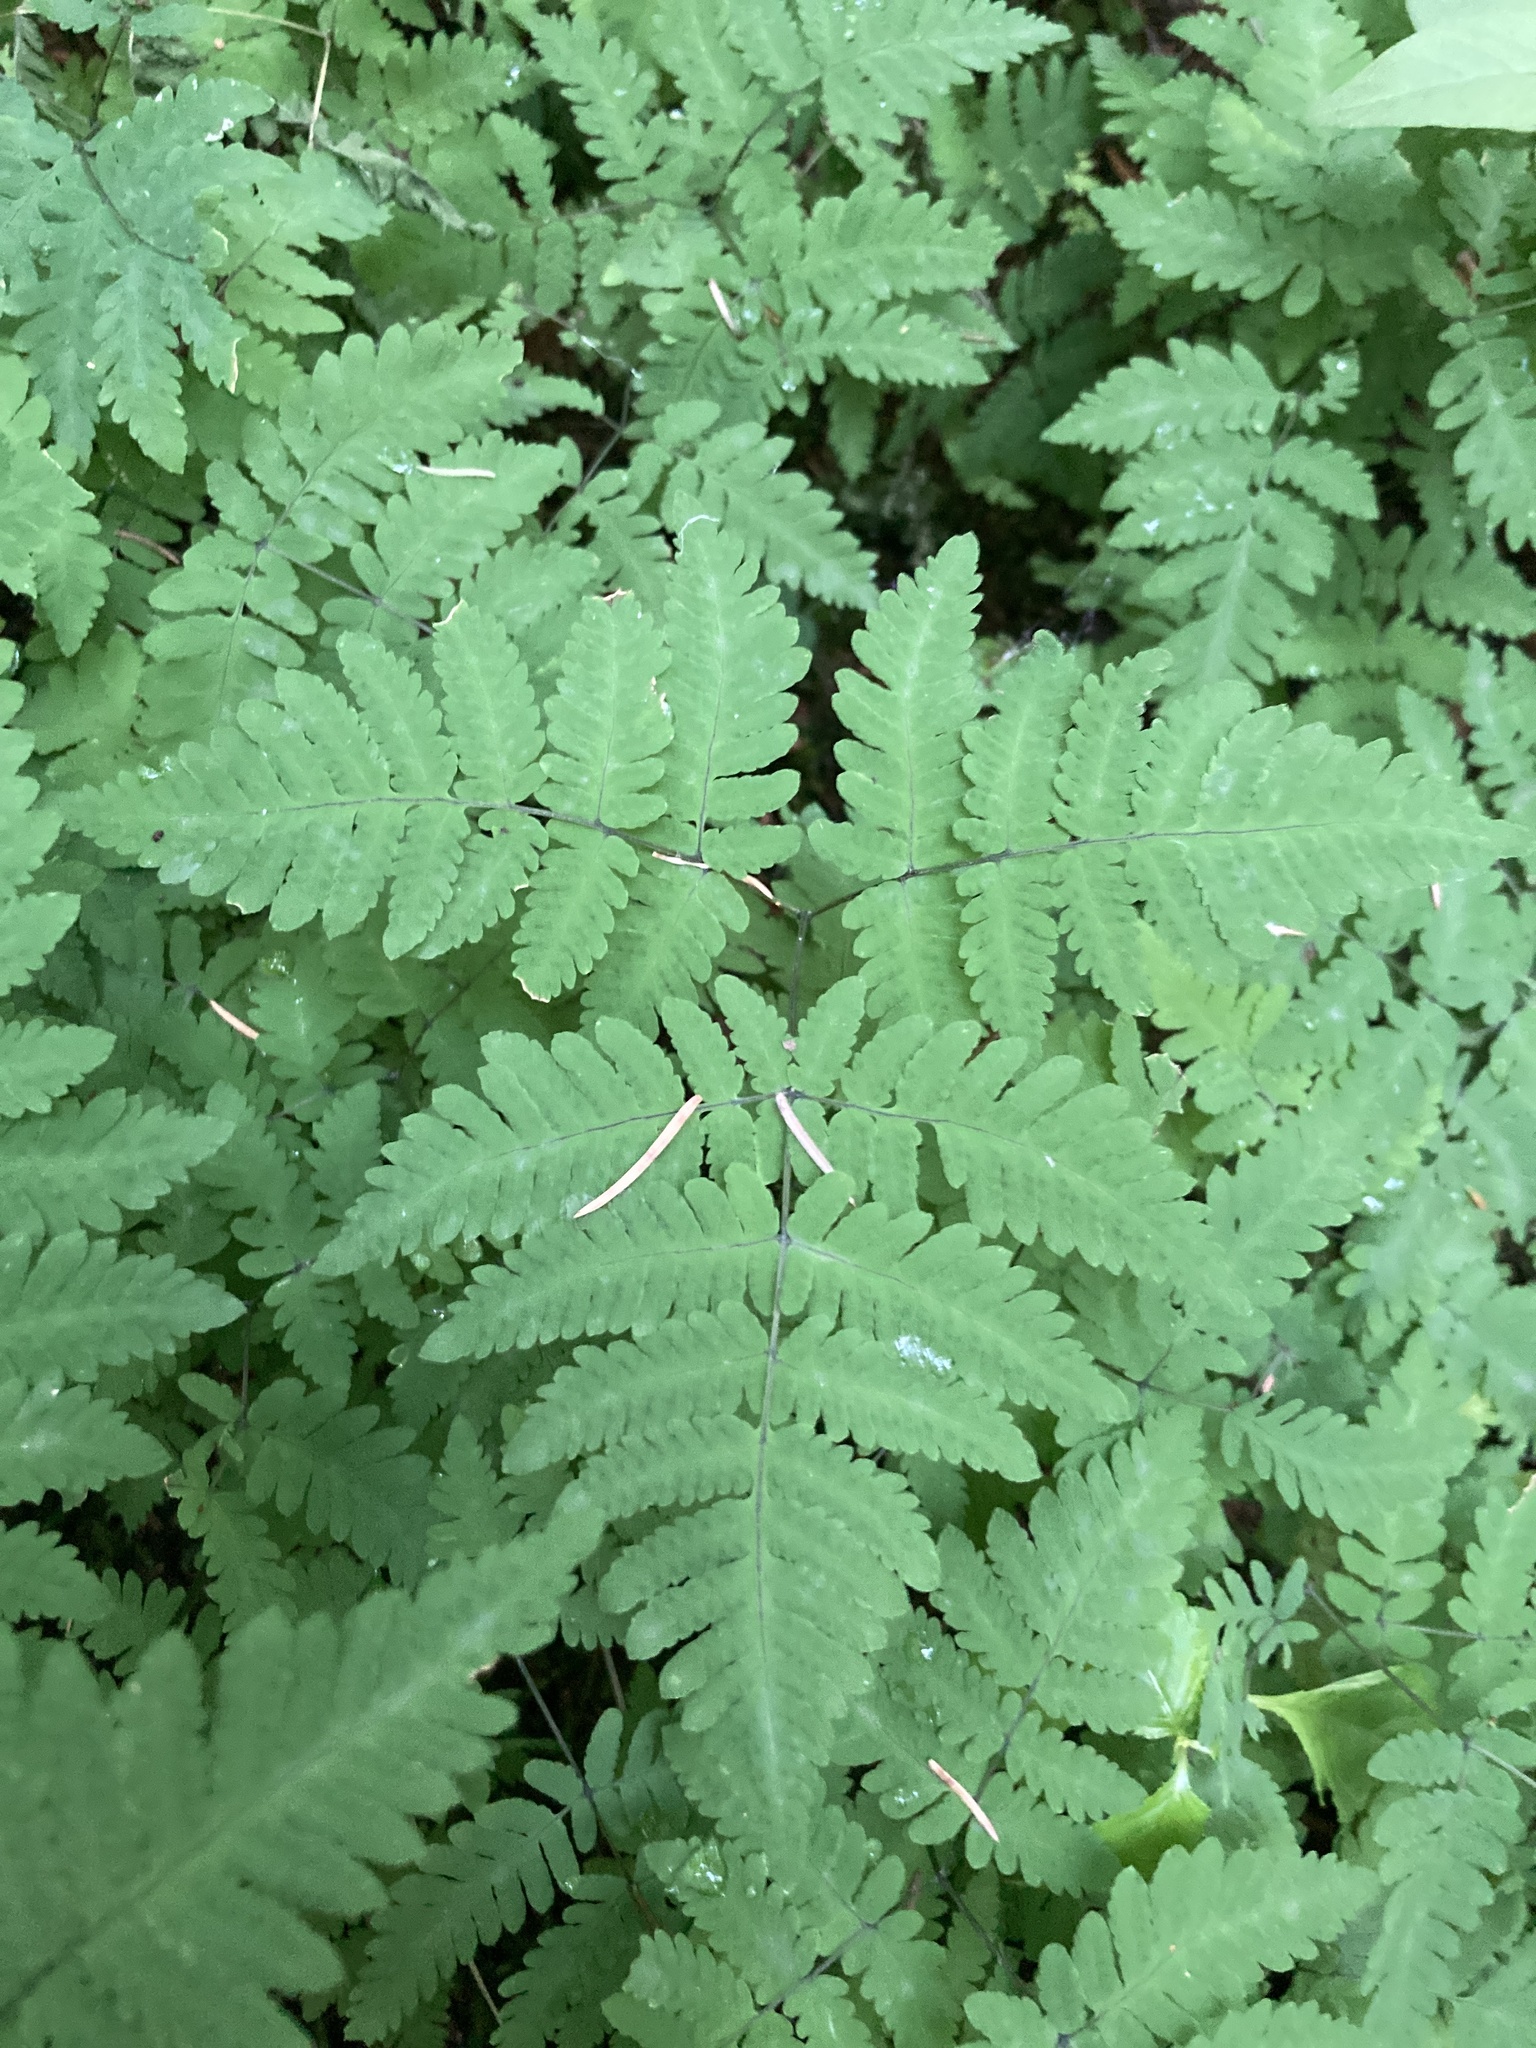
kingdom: Plantae
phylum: Tracheophyta
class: Polypodiopsida
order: Polypodiales
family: Cystopteridaceae
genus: Gymnocarpium
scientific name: Gymnocarpium dryopteris
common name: Oak fern
